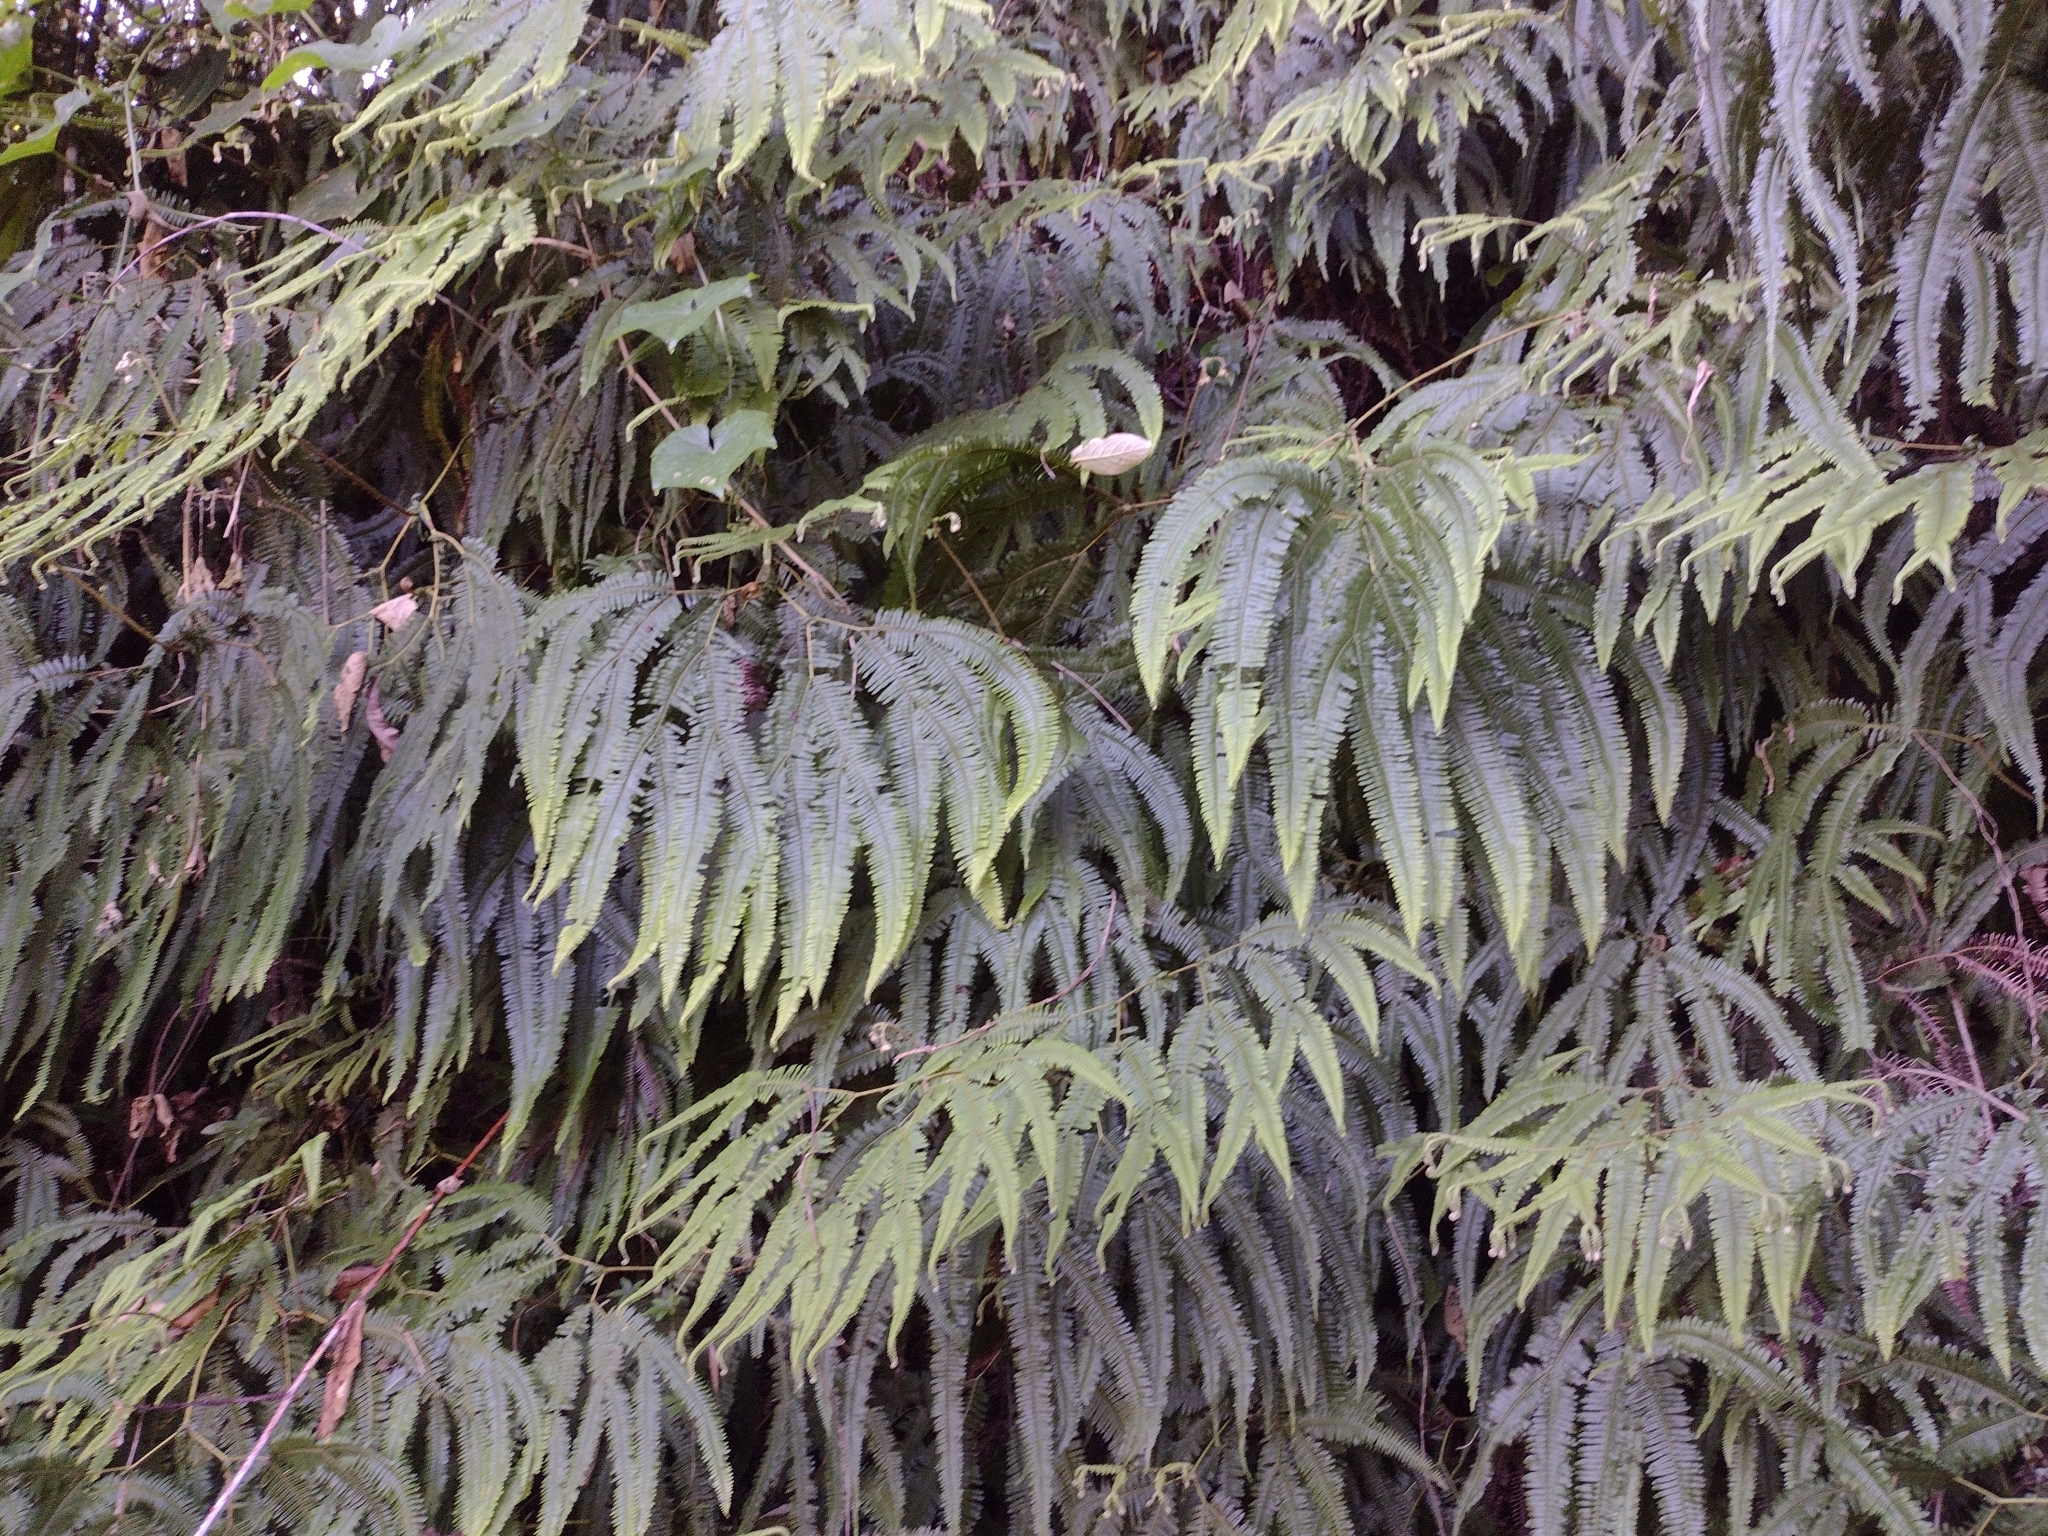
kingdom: Plantae
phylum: Tracheophyta
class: Polypodiopsida
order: Gleicheniales
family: Gleicheniaceae
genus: Gleichenella
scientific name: Gleichenella pectinata
